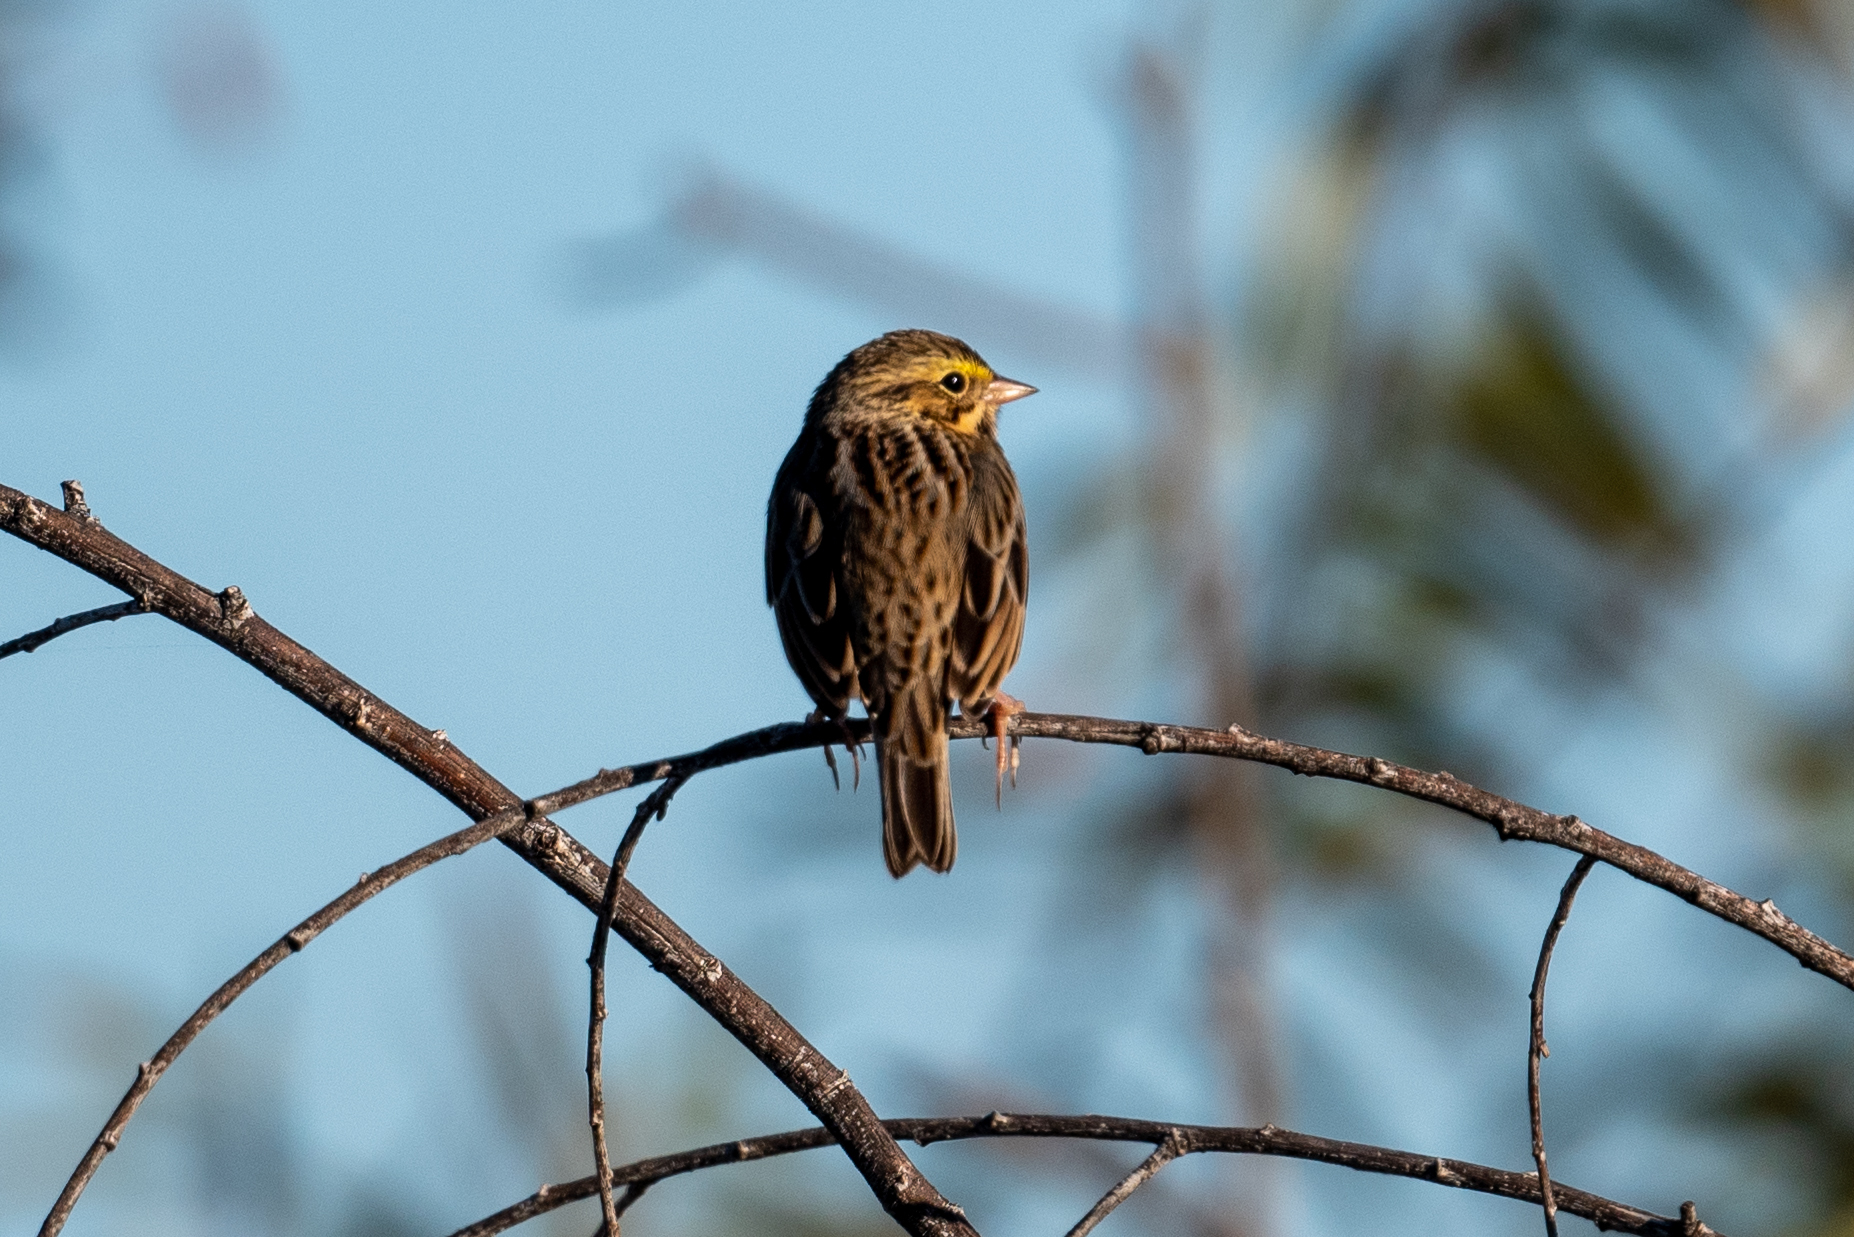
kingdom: Animalia
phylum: Chordata
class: Aves
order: Passeriformes
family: Passerellidae
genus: Passerculus
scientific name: Passerculus sandwichensis
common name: Savannah sparrow
